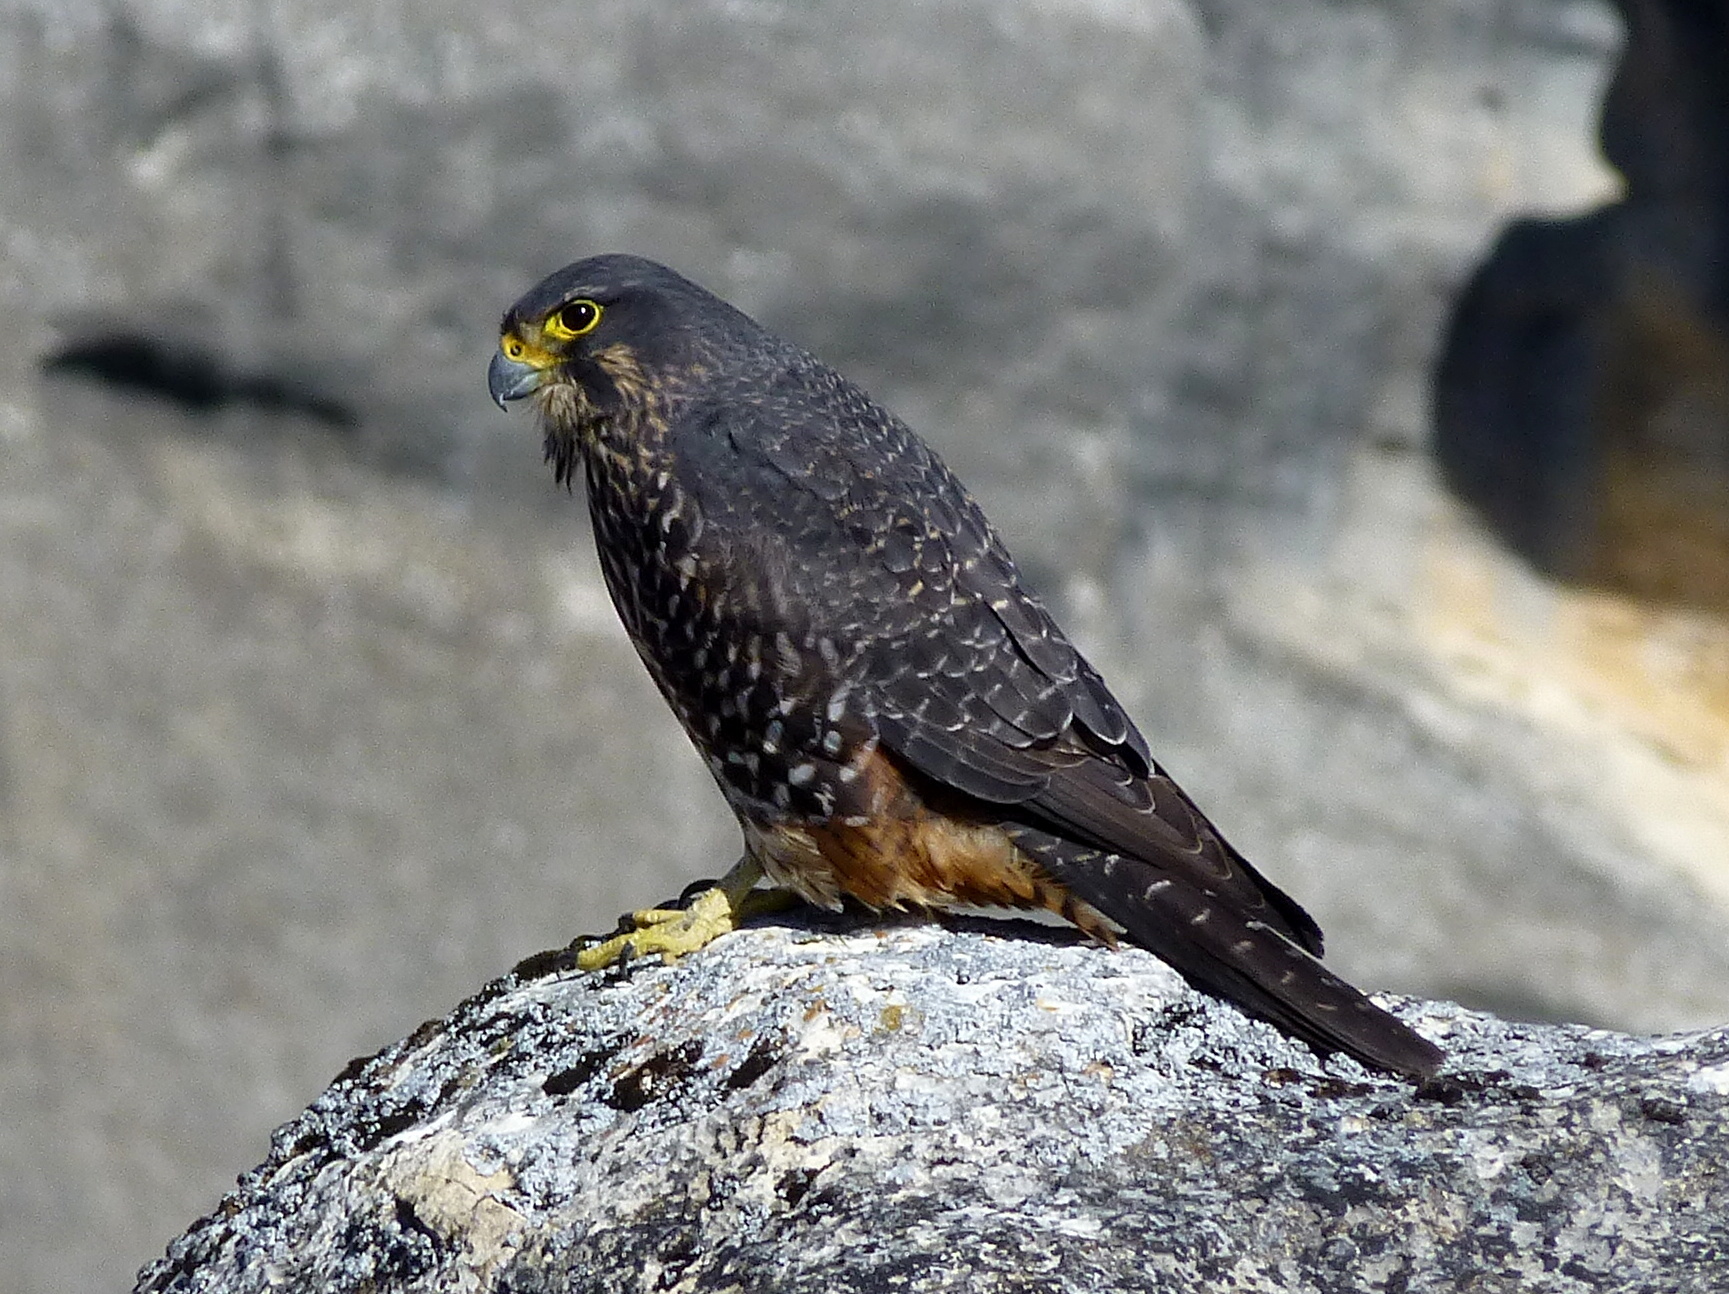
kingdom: Animalia
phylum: Chordata
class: Aves
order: Falconiformes
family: Falconidae
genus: Falco
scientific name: Falco novaeseelandiae
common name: New zealand falcon
